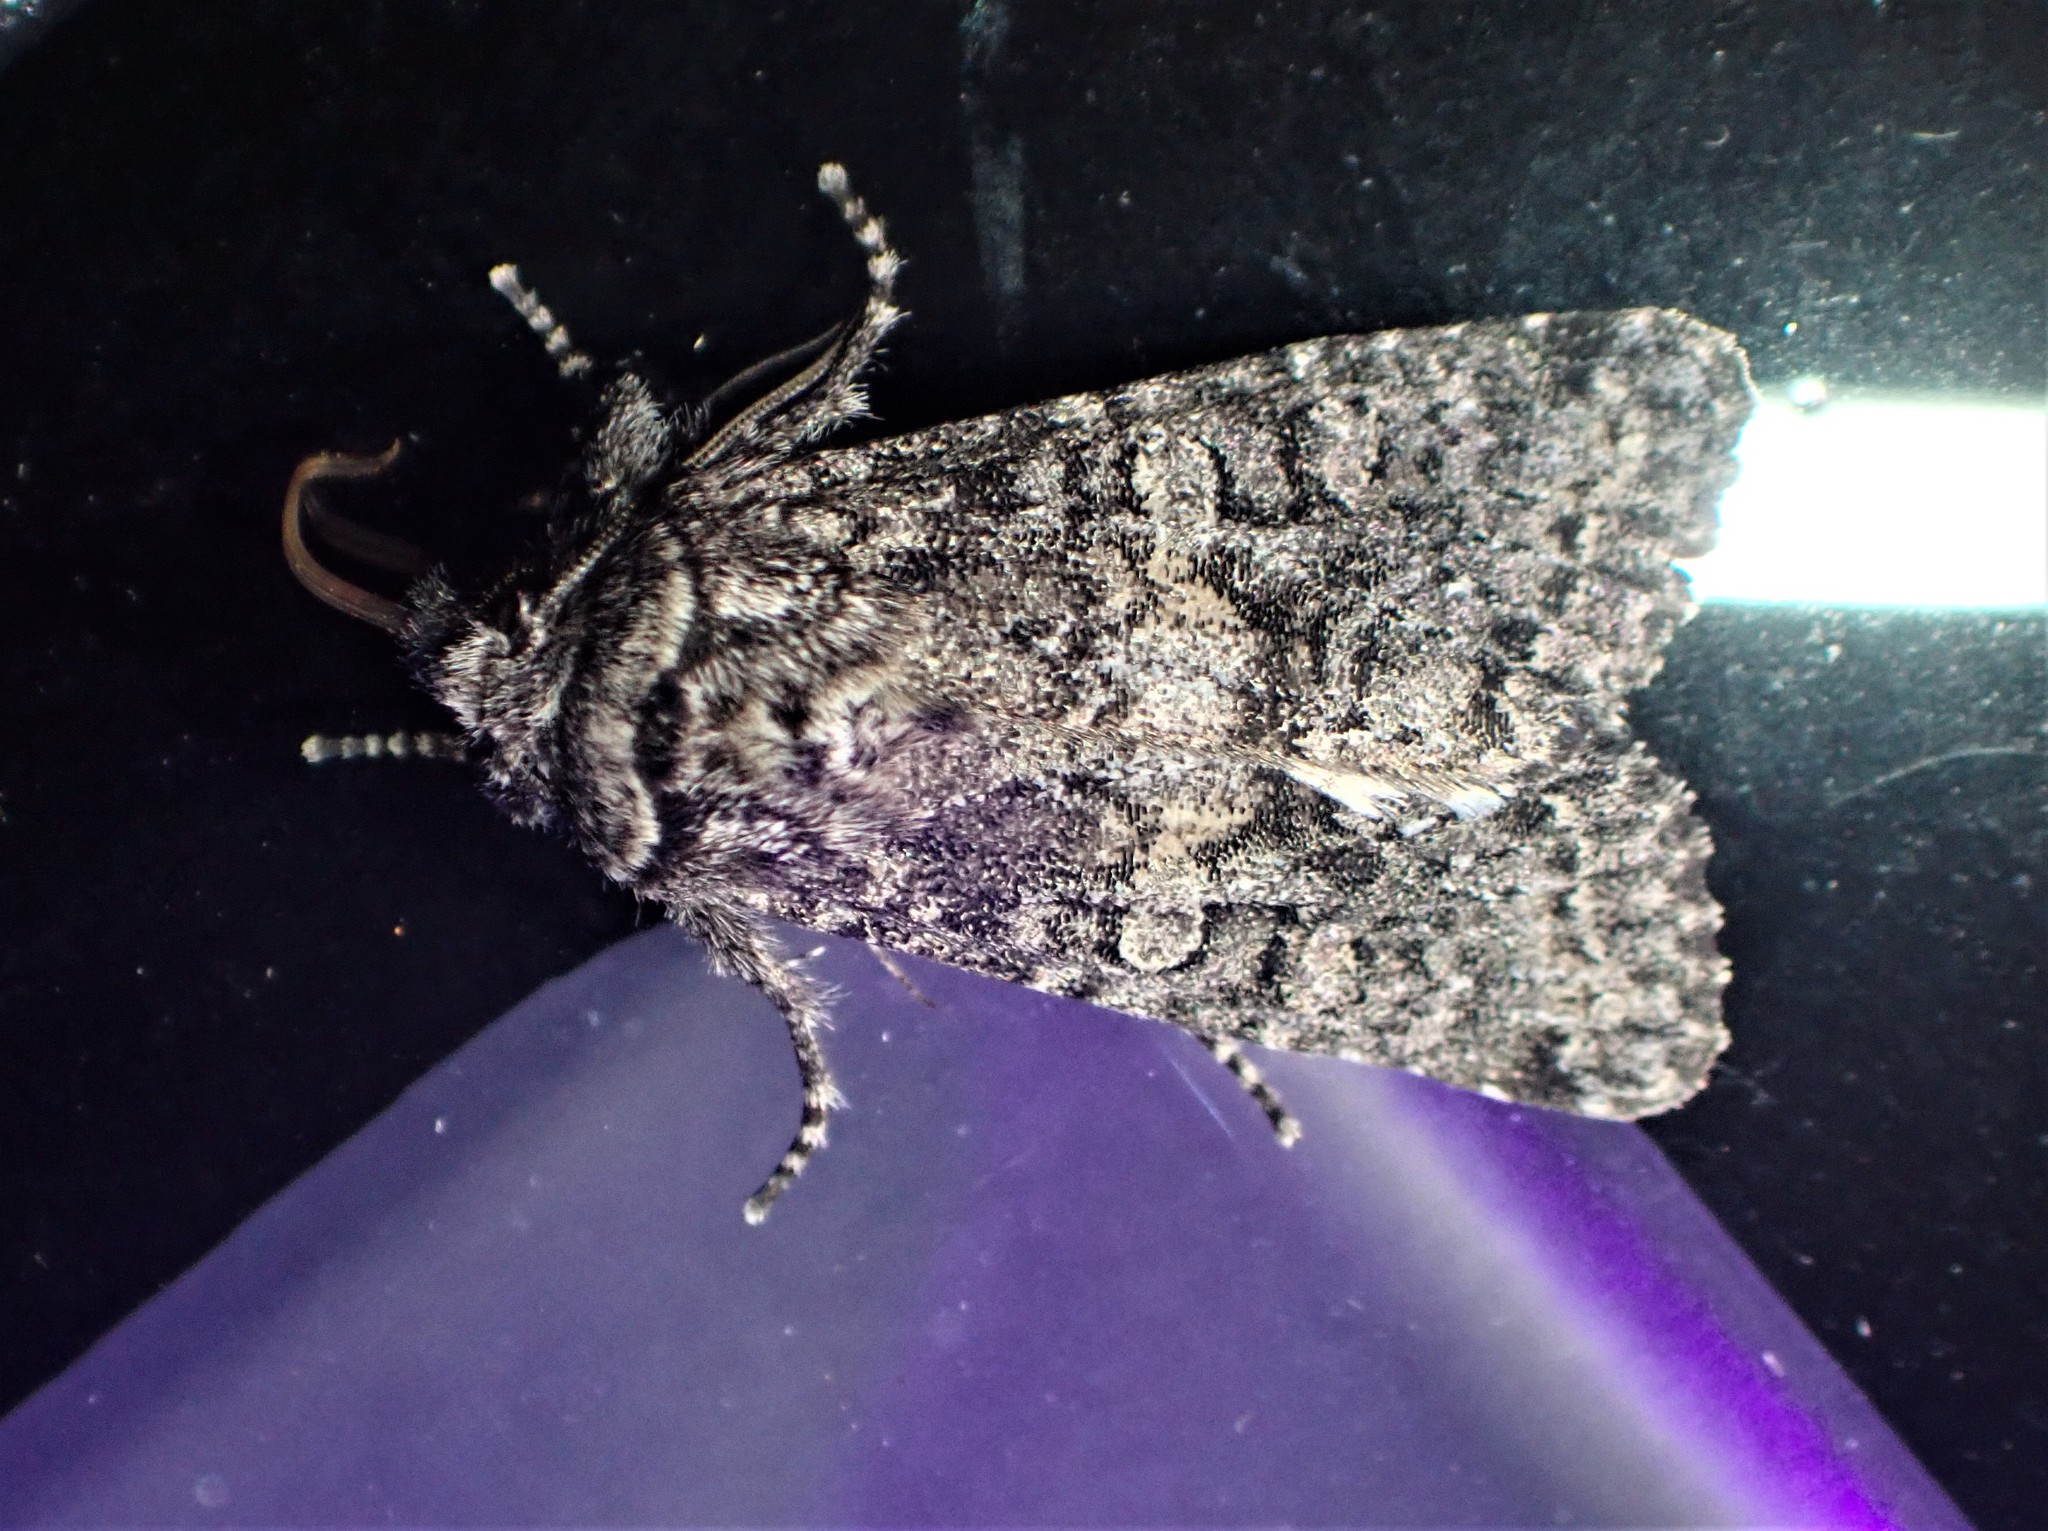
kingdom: Animalia
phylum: Arthropoda
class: Insecta
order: Lepidoptera
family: Noctuidae
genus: Egira
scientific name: Egira dolosa
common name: Lined black aspen cat.
